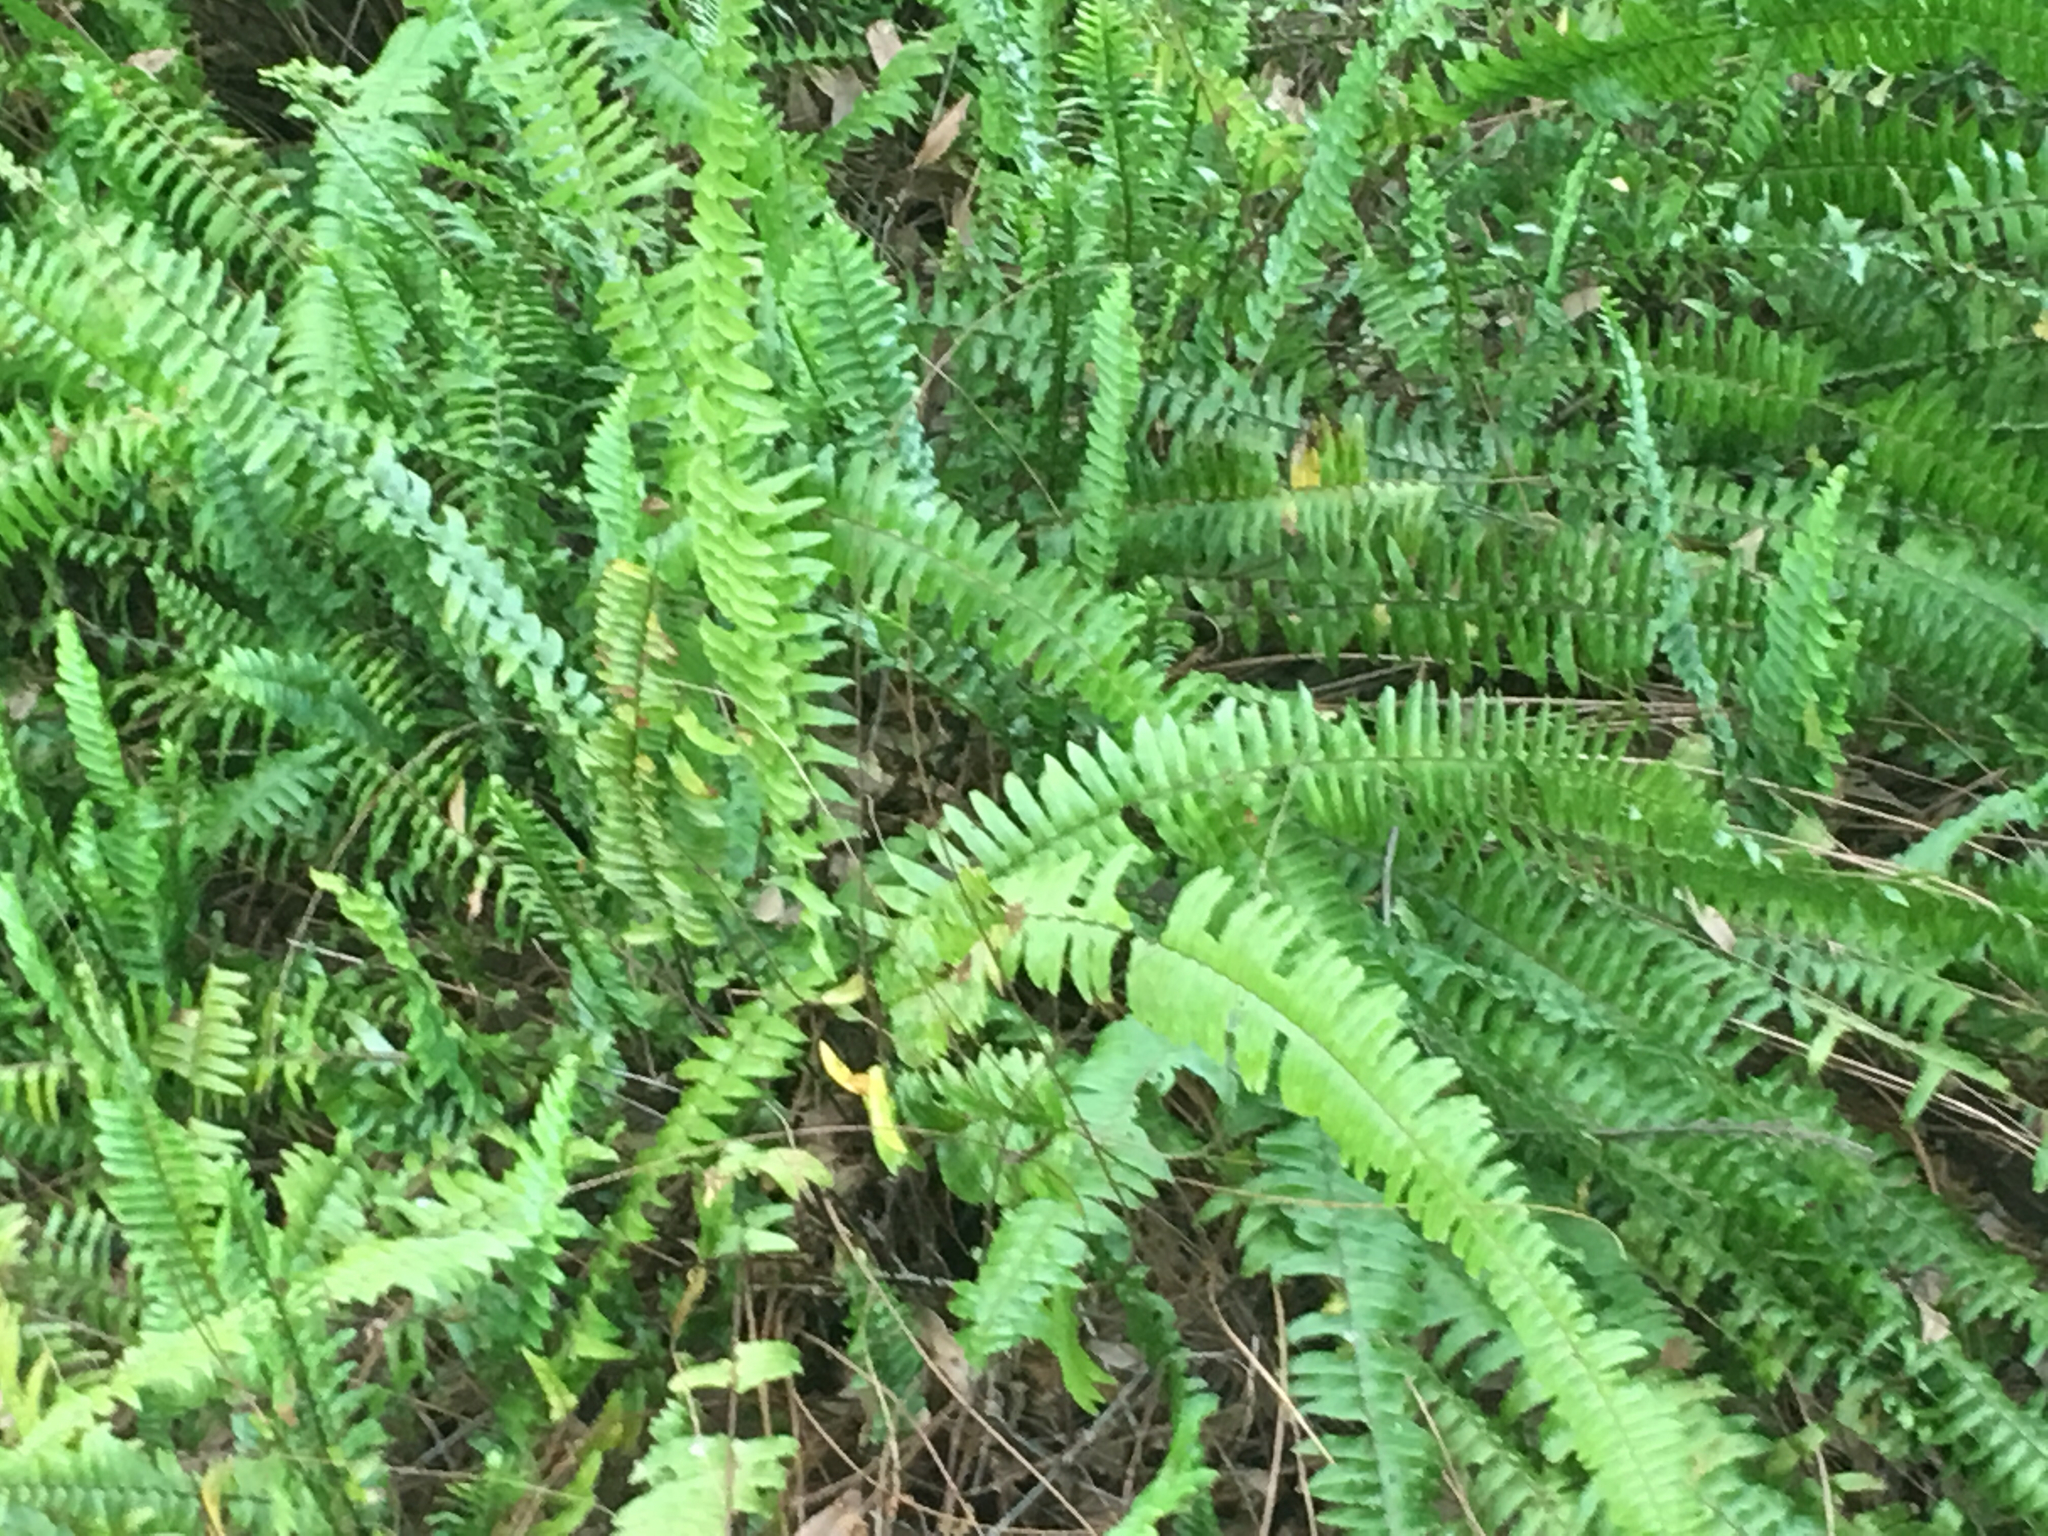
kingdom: Plantae
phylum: Tracheophyta
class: Polypodiopsida
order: Polypodiales
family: Nephrolepidaceae
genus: Nephrolepis
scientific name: Nephrolepis cordifolia
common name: Narrow swordfern
